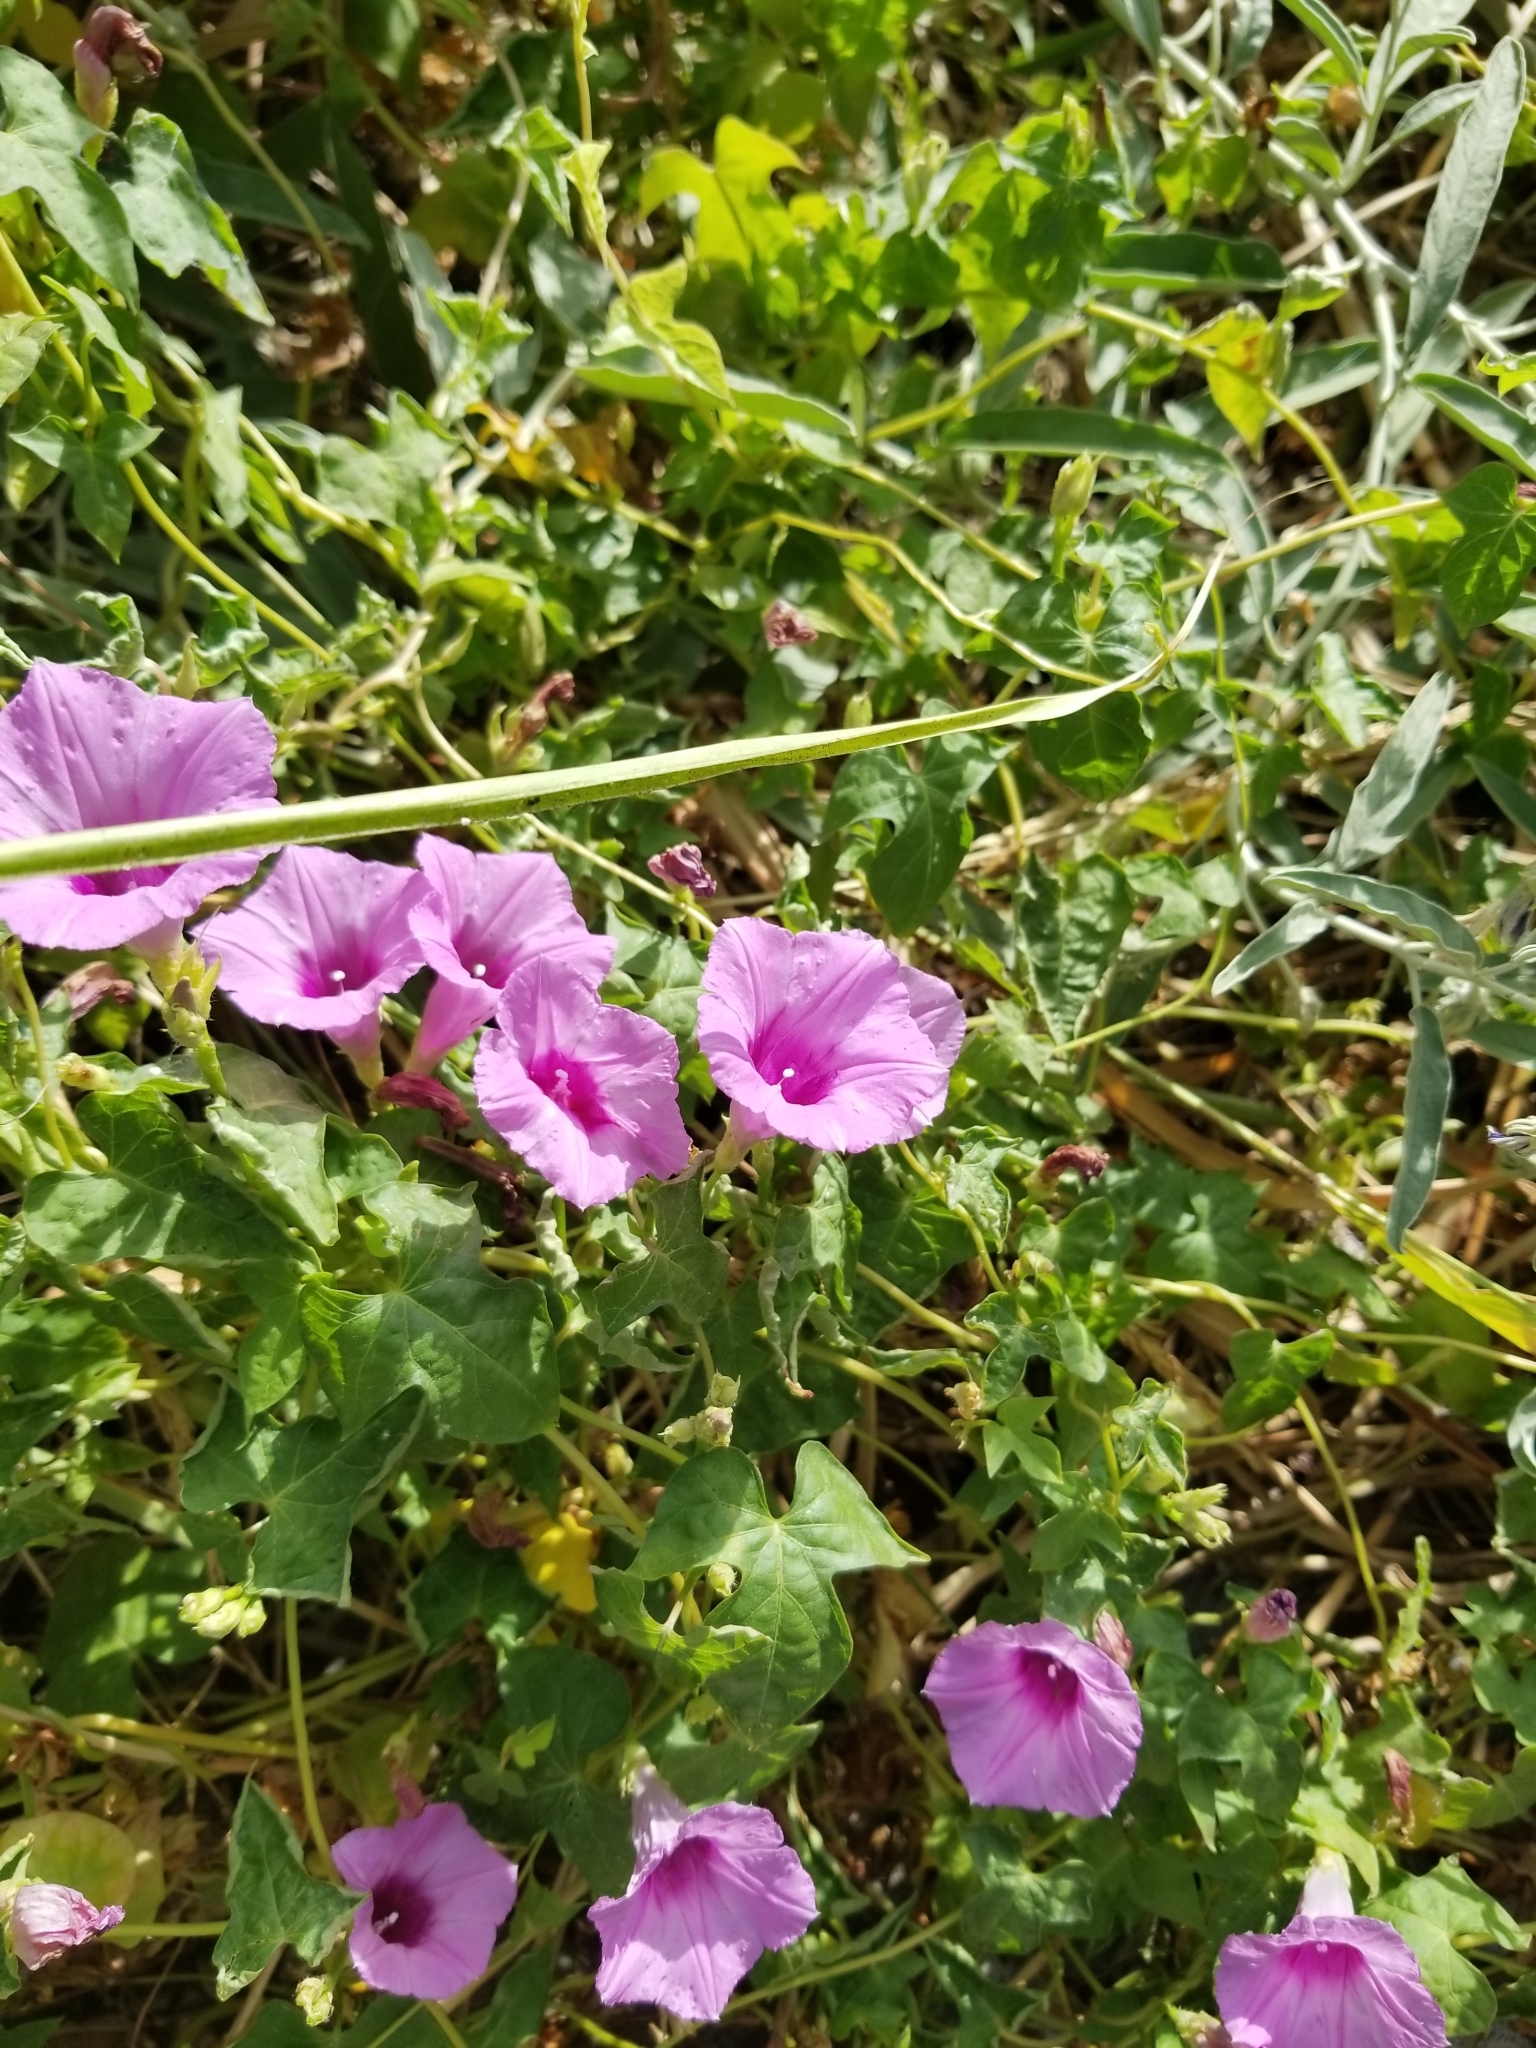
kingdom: Plantae
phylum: Tracheophyta
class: Magnoliopsida
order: Solanales
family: Convolvulaceae
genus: Ipomoea
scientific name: Ipomoea cordatotriloba
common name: Cotton morning glory
